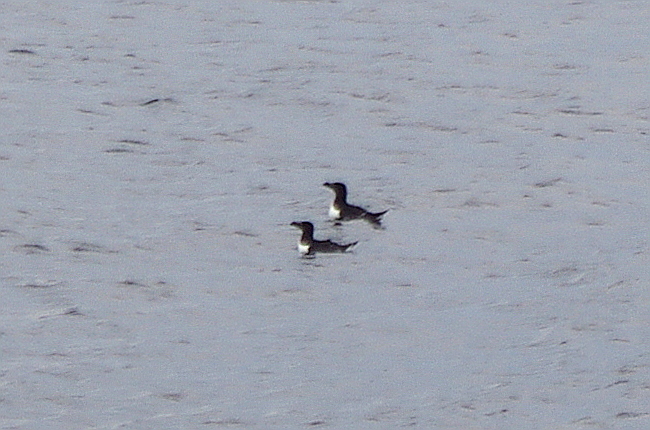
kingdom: Animalia
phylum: Chordata
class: Aves
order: Charadriiformes
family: Alcidae
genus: Alca
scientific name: Alca torda
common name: Razorbill
